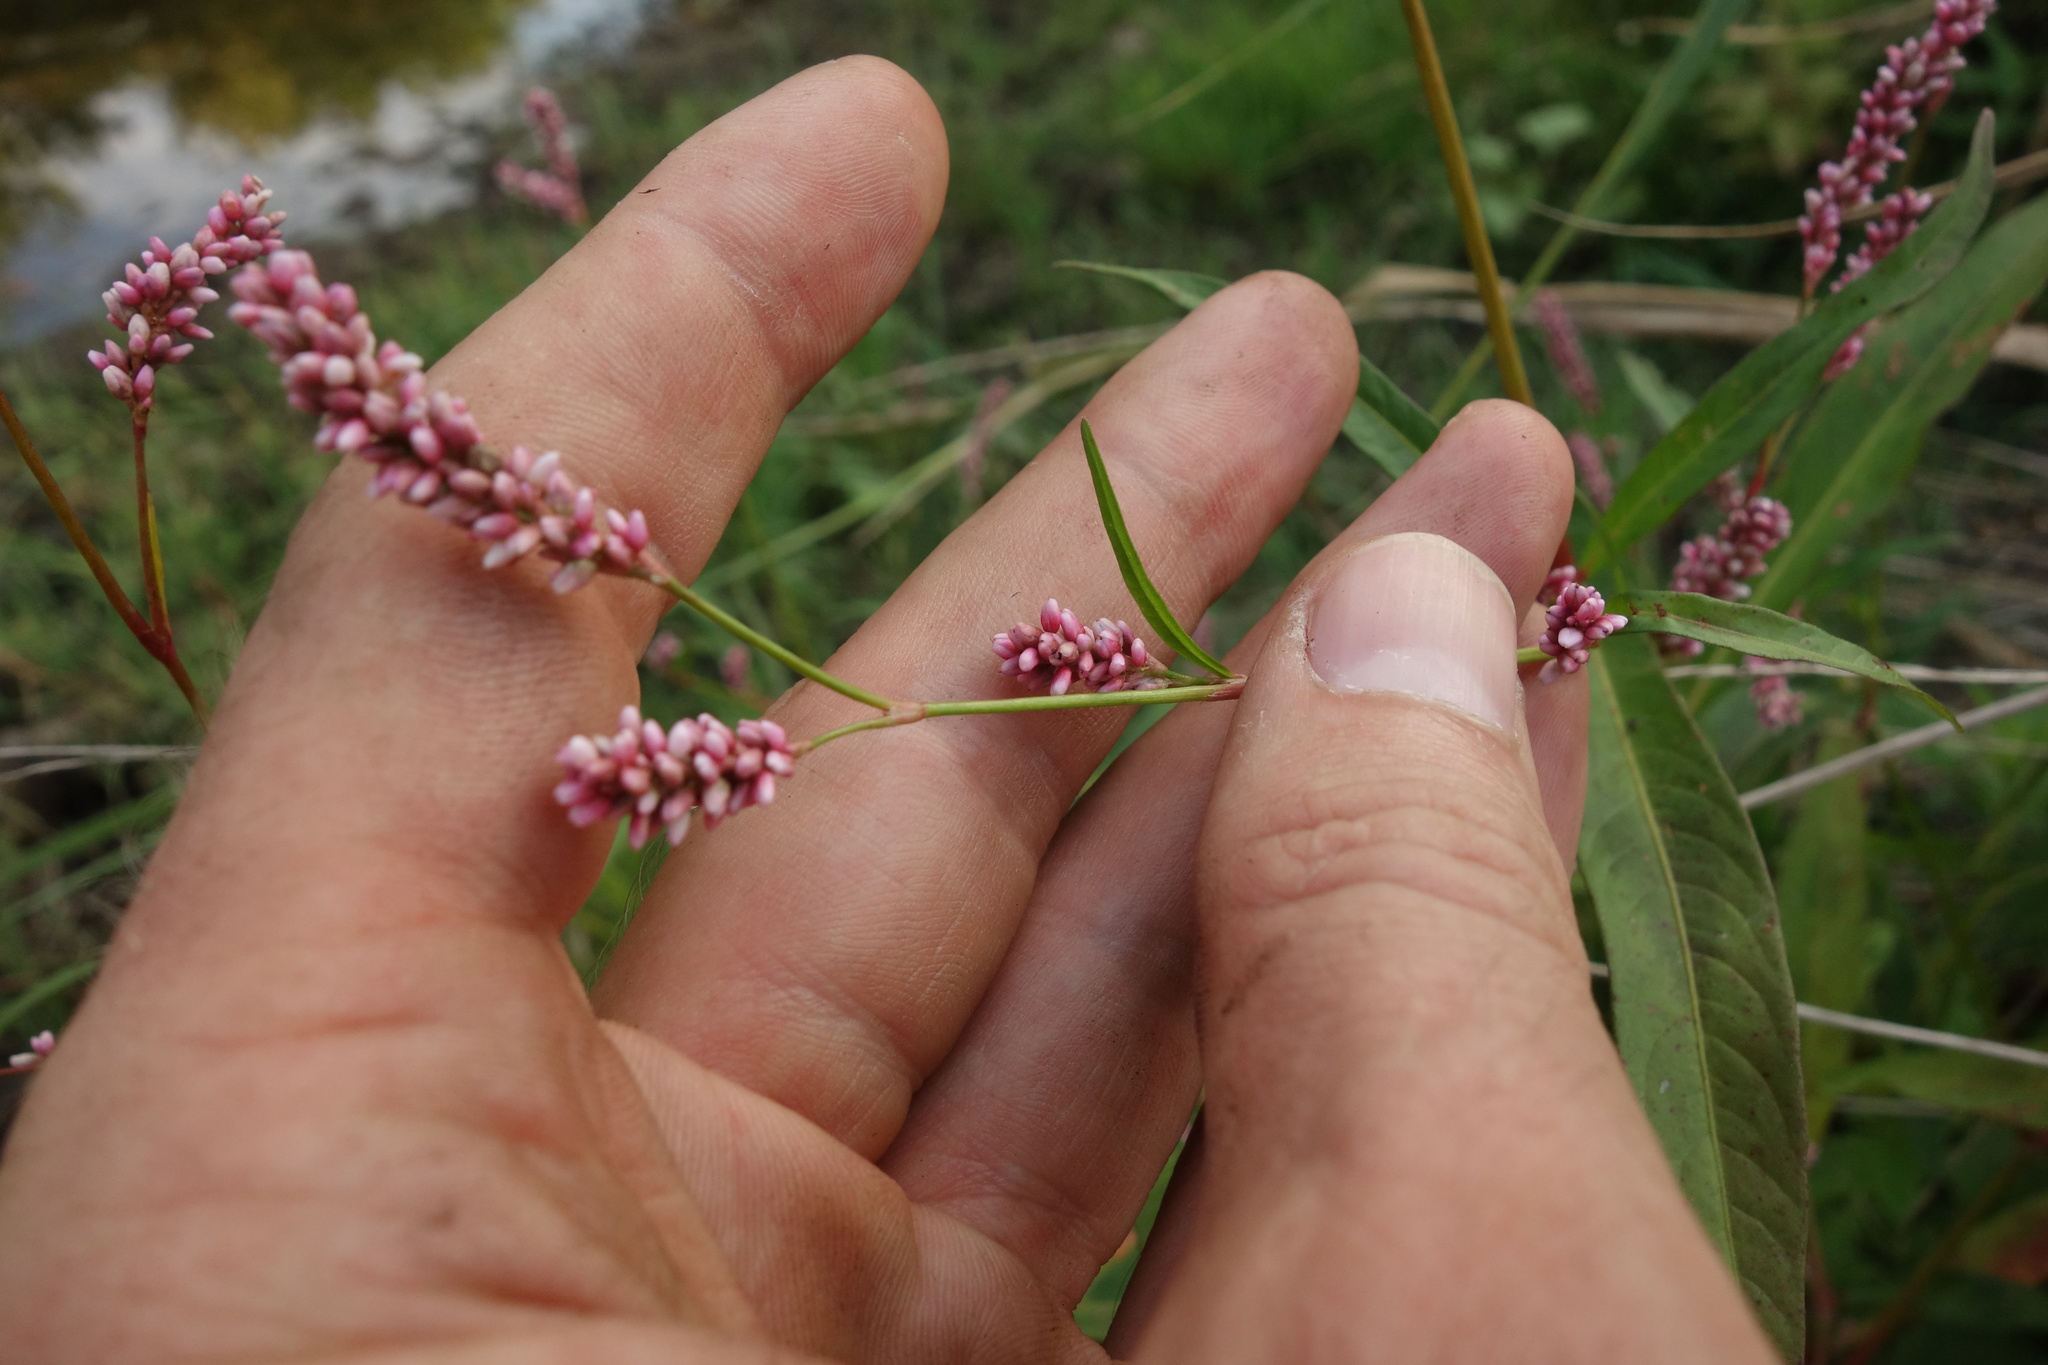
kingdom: Plantae
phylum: Tracheophyta
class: Magnoliopsida
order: Caryophyllales
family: Polygonaceae
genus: Persicaria
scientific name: Persicaria maculosa
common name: Redshank
